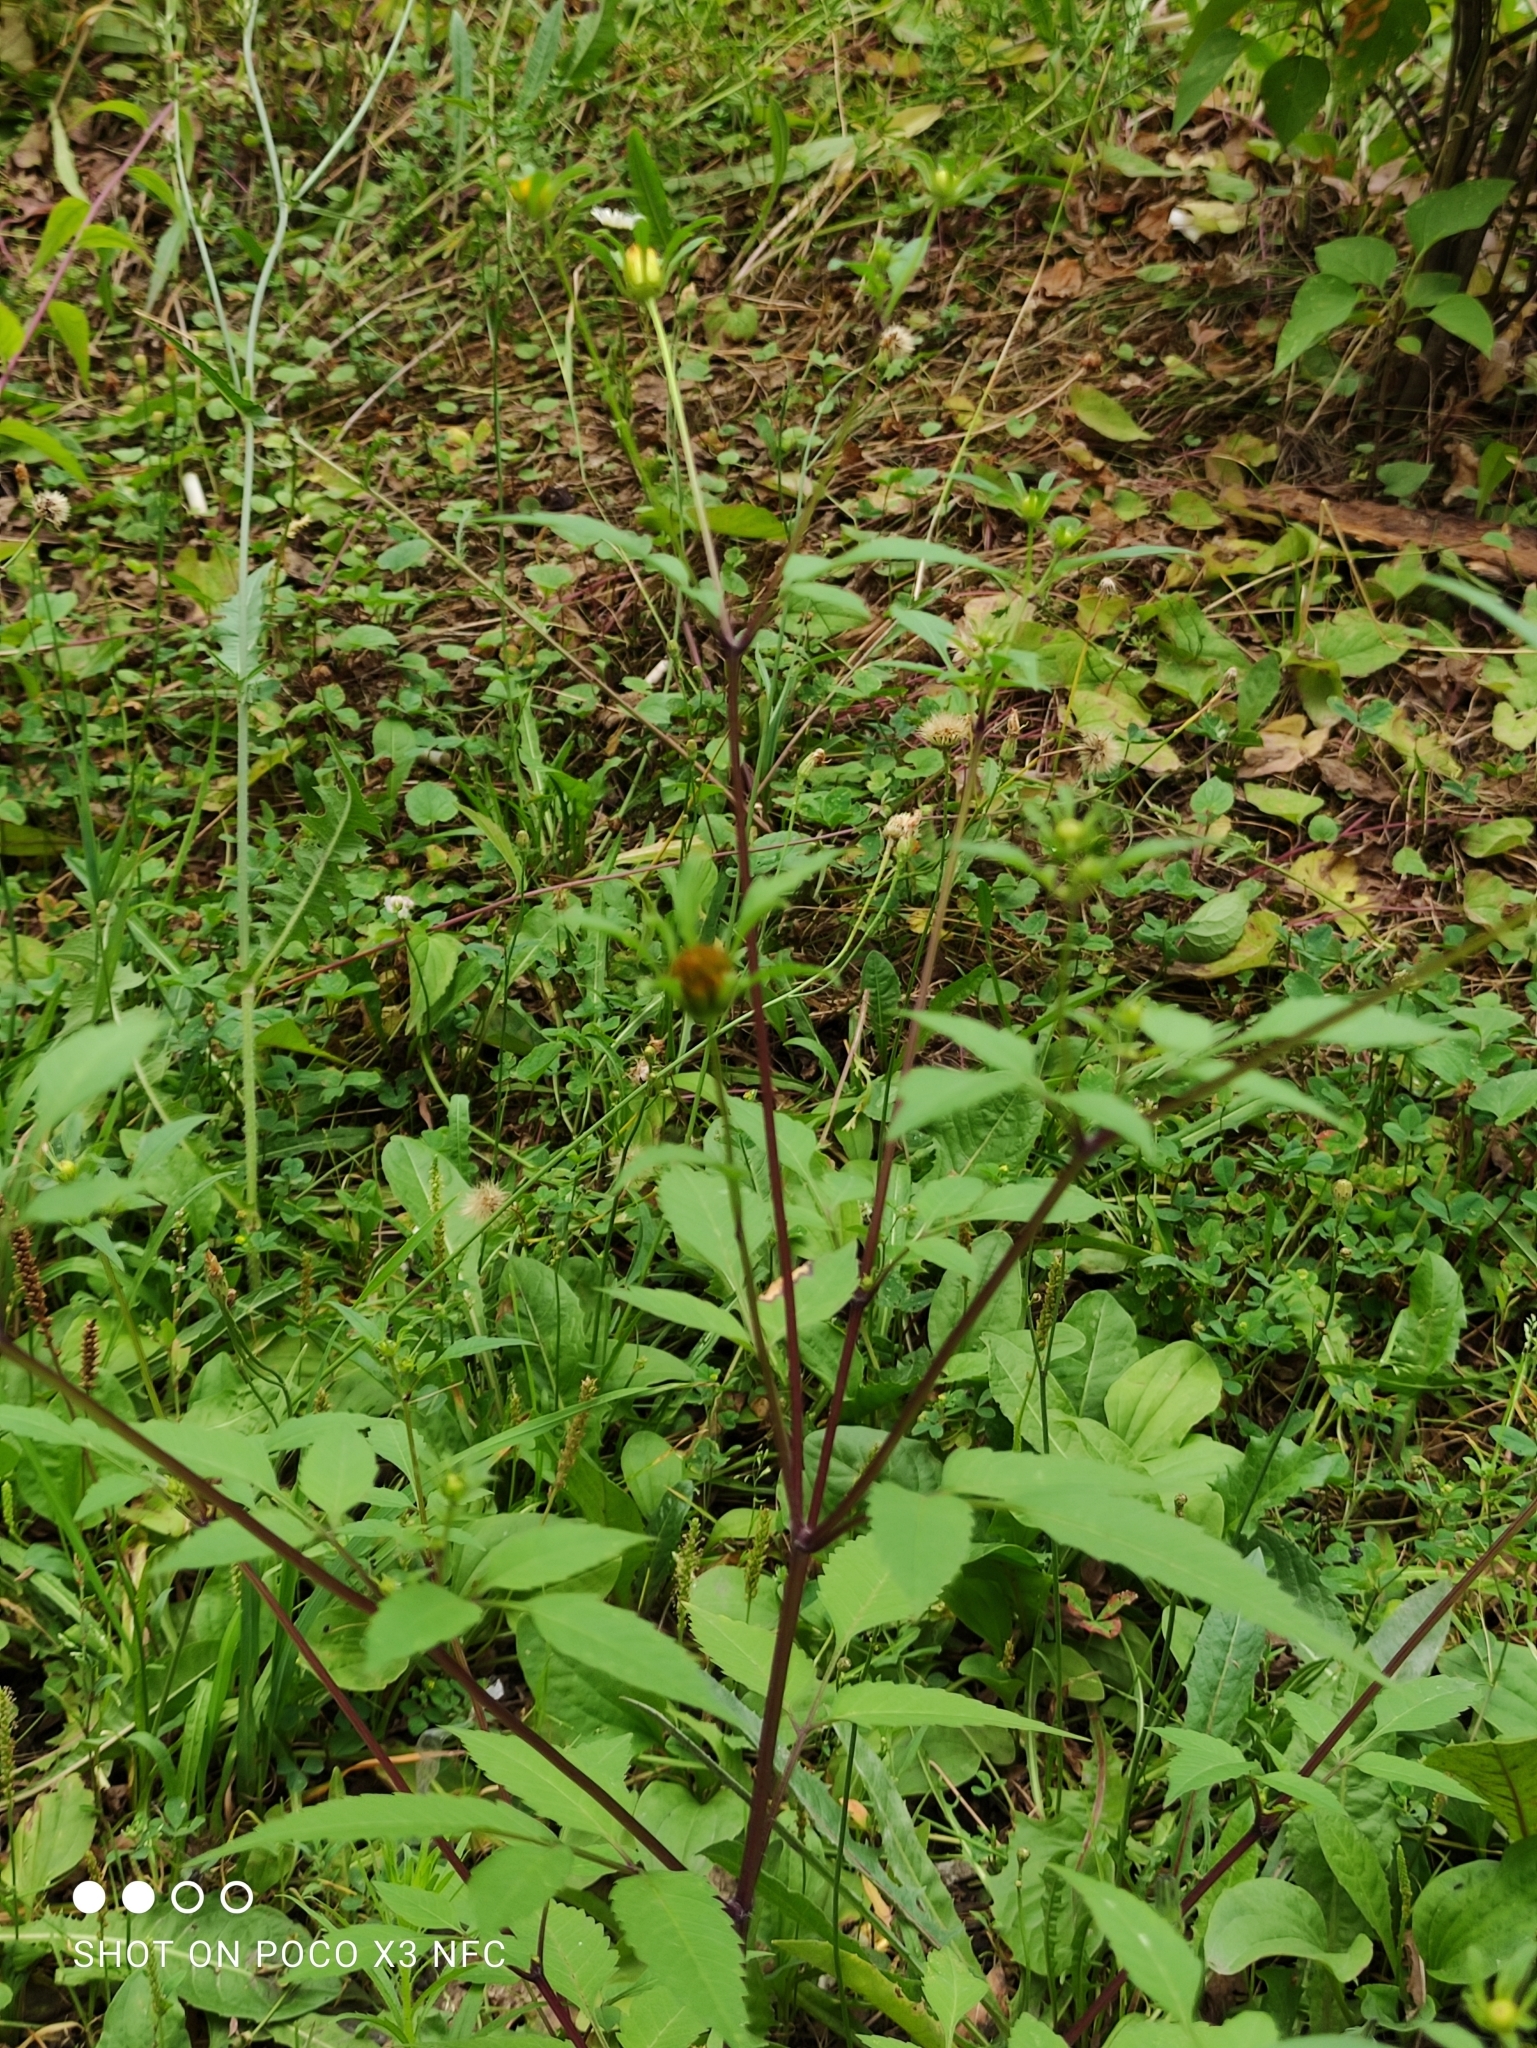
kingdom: Plantae
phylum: Tracheophyta
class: Magnoliopsida
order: Asterales
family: Asteraceae
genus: Bidens
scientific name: Bidens frondosa
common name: Beggarticks
